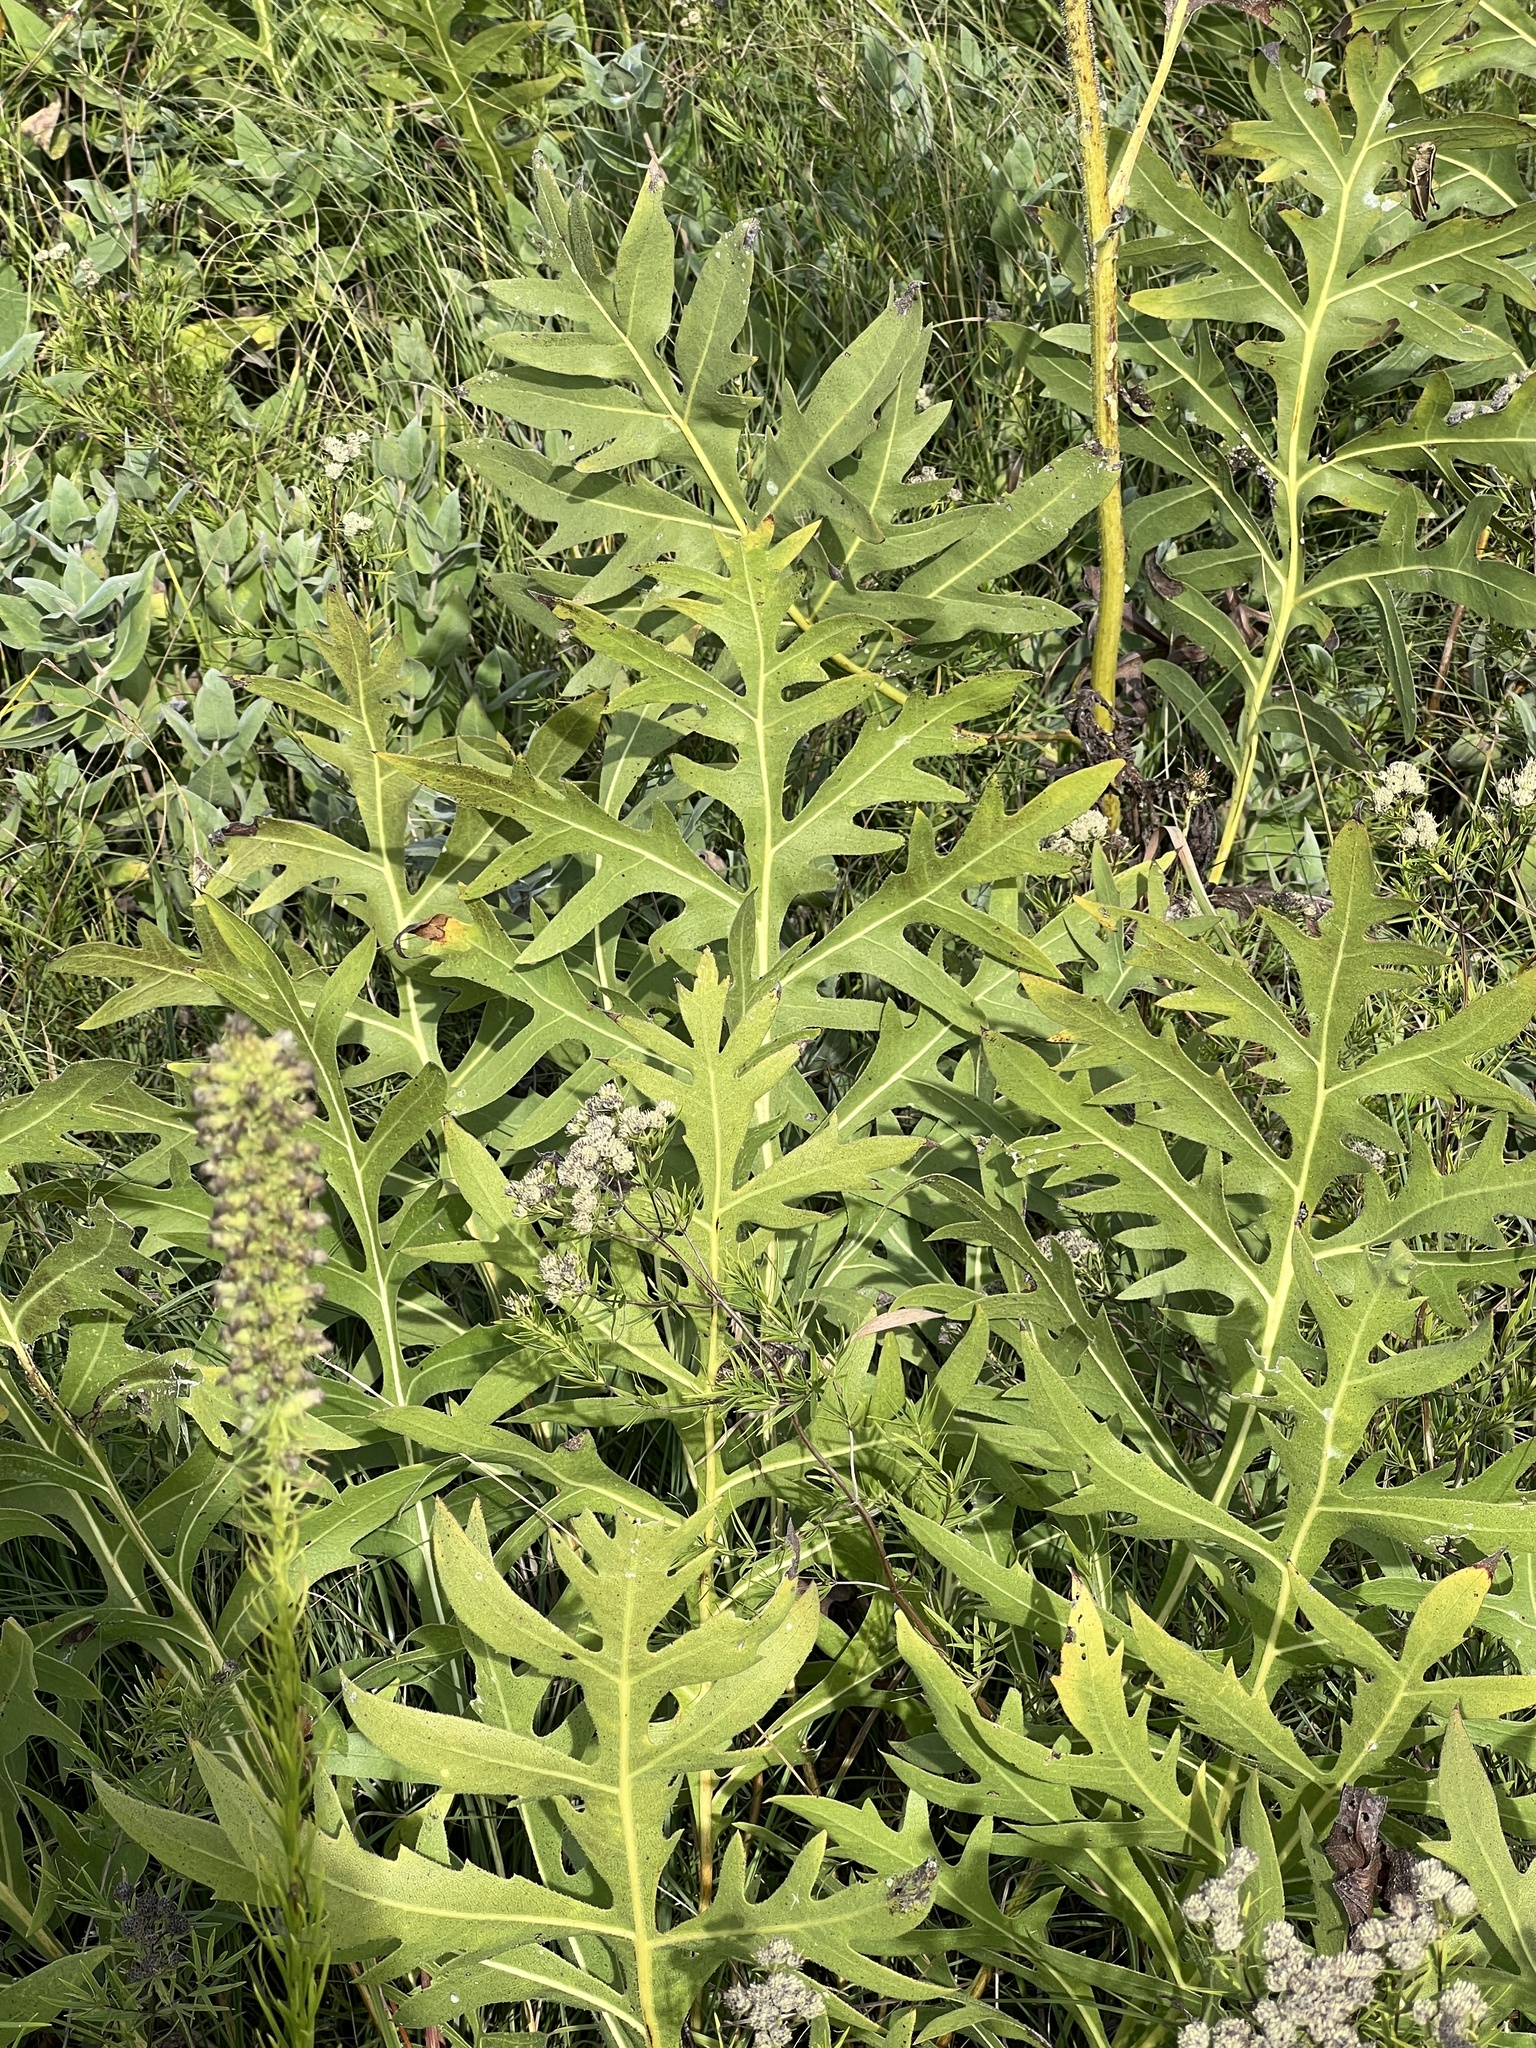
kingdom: Plantae
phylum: Tracheophyta
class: Magnoliopsida
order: Asterales
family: Asteraceae
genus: Silphium
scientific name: Silphium laciniatum
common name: Polarplant
